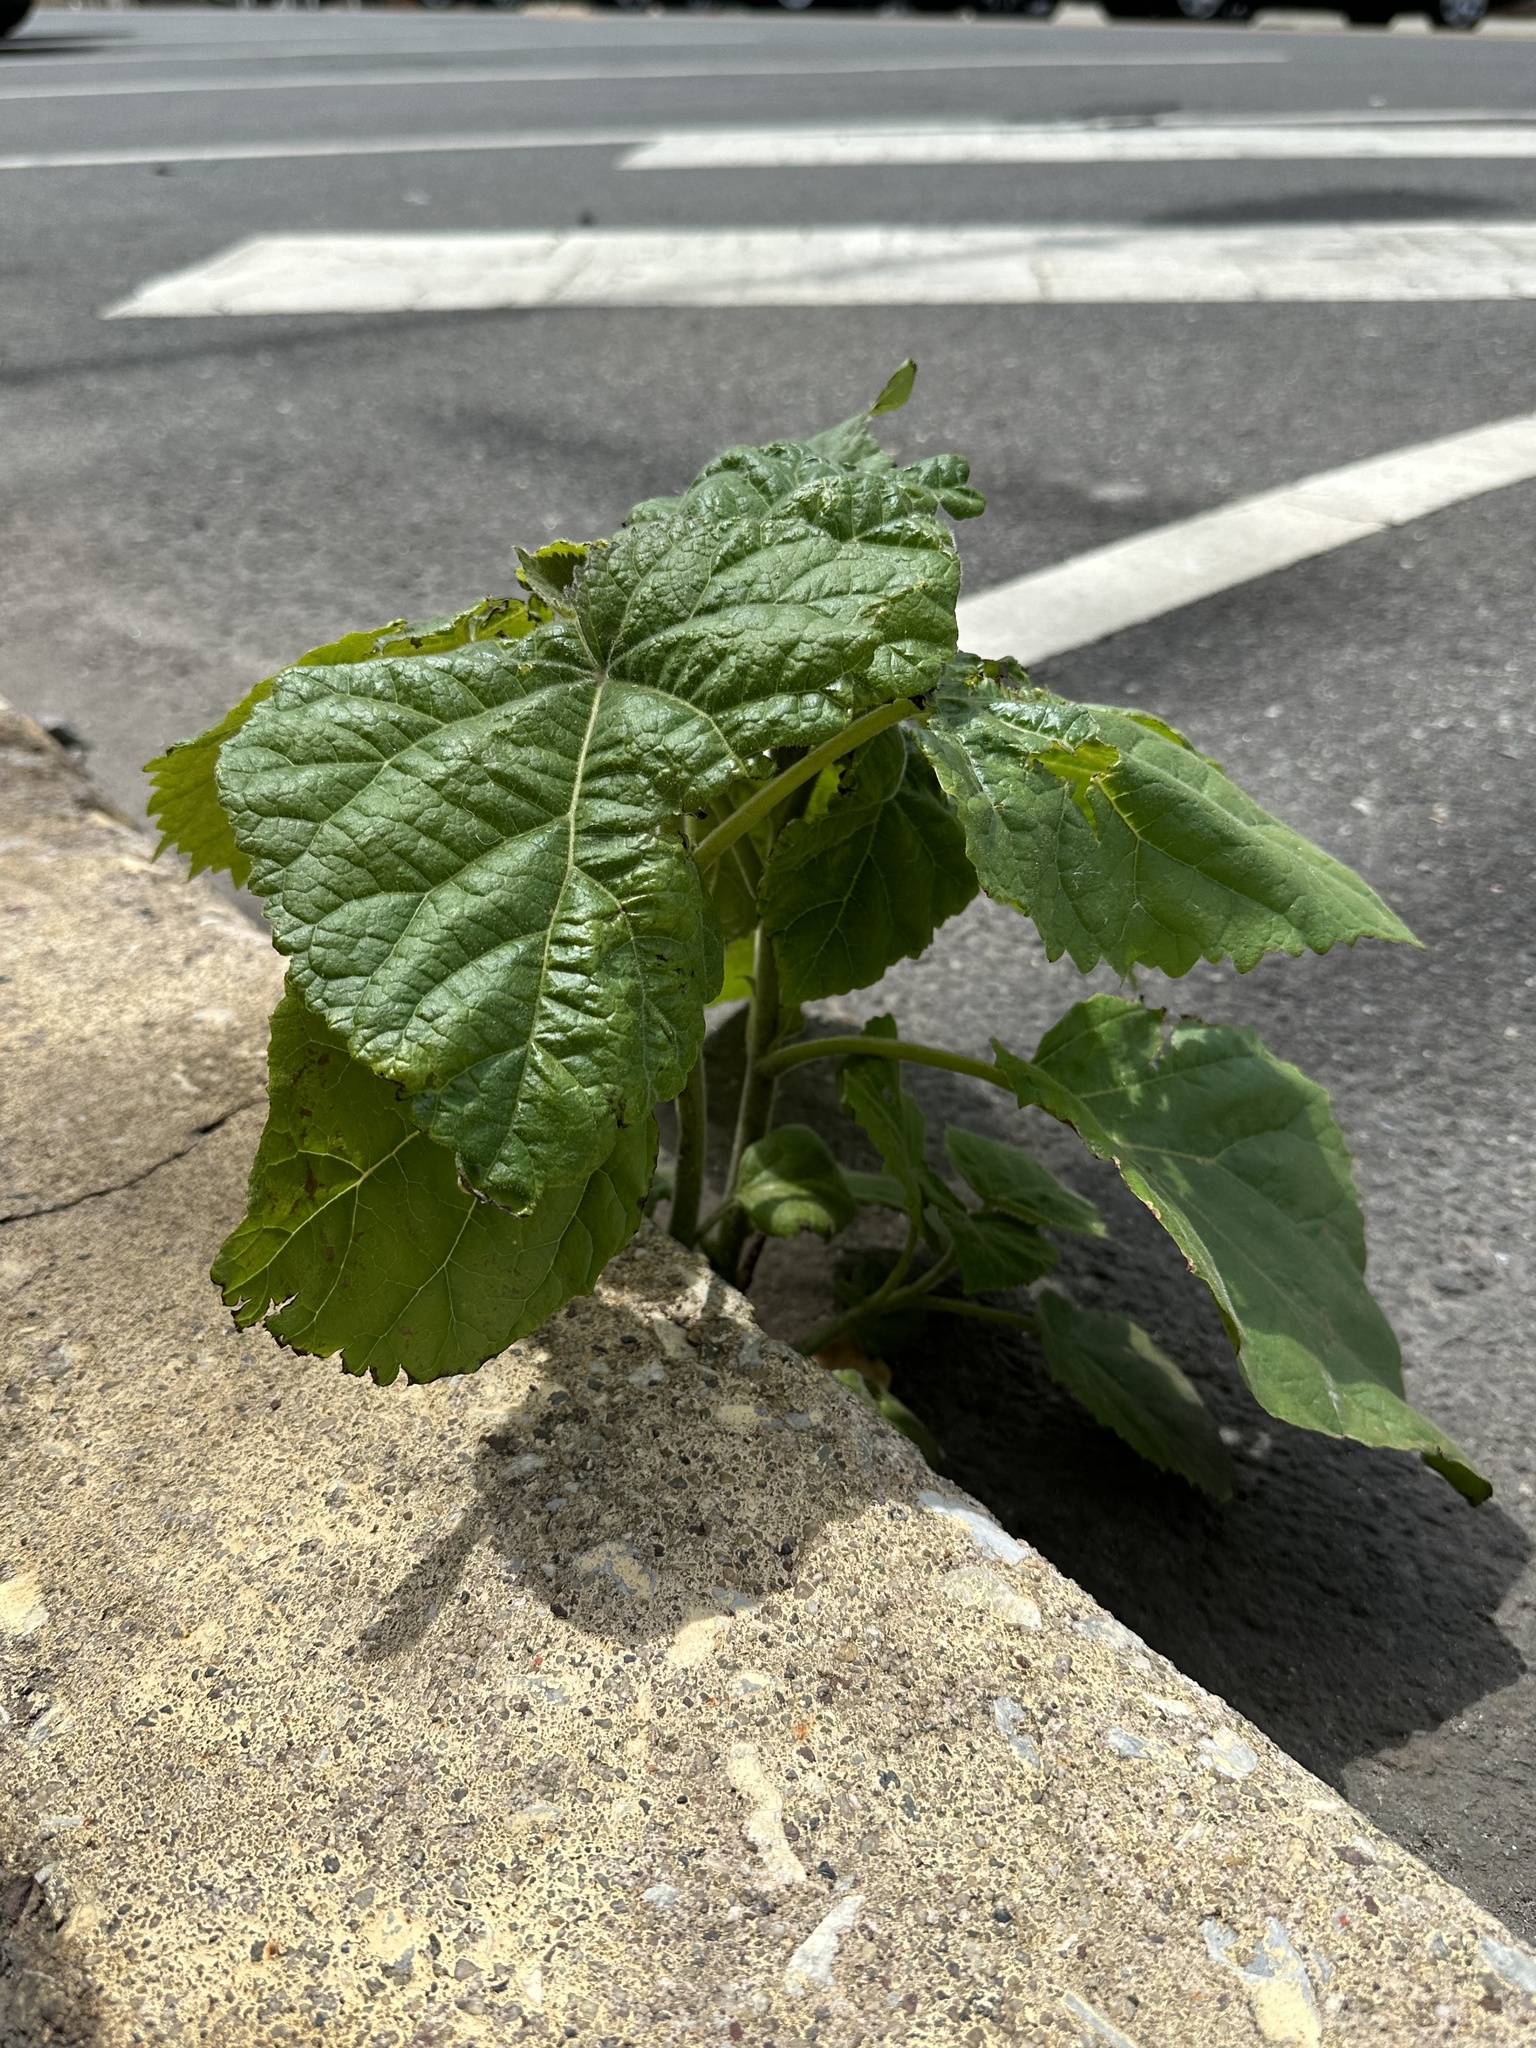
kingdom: Plantae
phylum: Tracheophyta
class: Magnoliopsida
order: Lamiales
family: Paulowniaceae
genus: Paulownia
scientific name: Paulownia tomentosa
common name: Foxglove-tree
